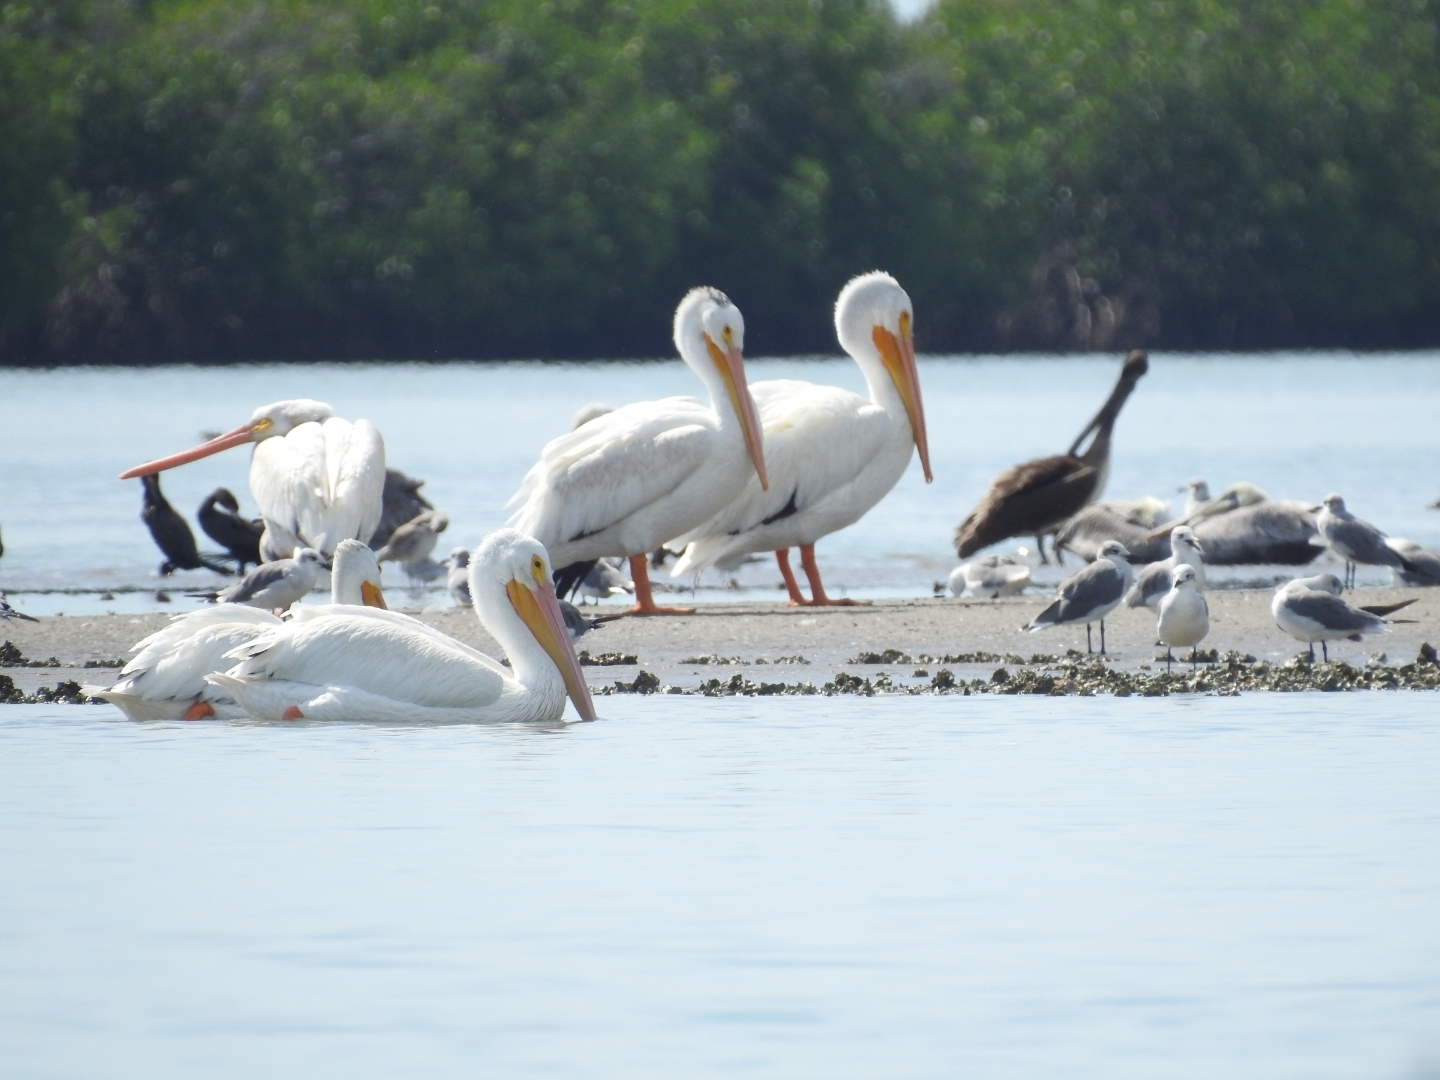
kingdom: Animalia
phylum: Chordata
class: Aves
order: Pelecaniformes
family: Pelecanidae
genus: Pelecanus
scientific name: Pelecanus erythrorhynchos
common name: American white pelican
